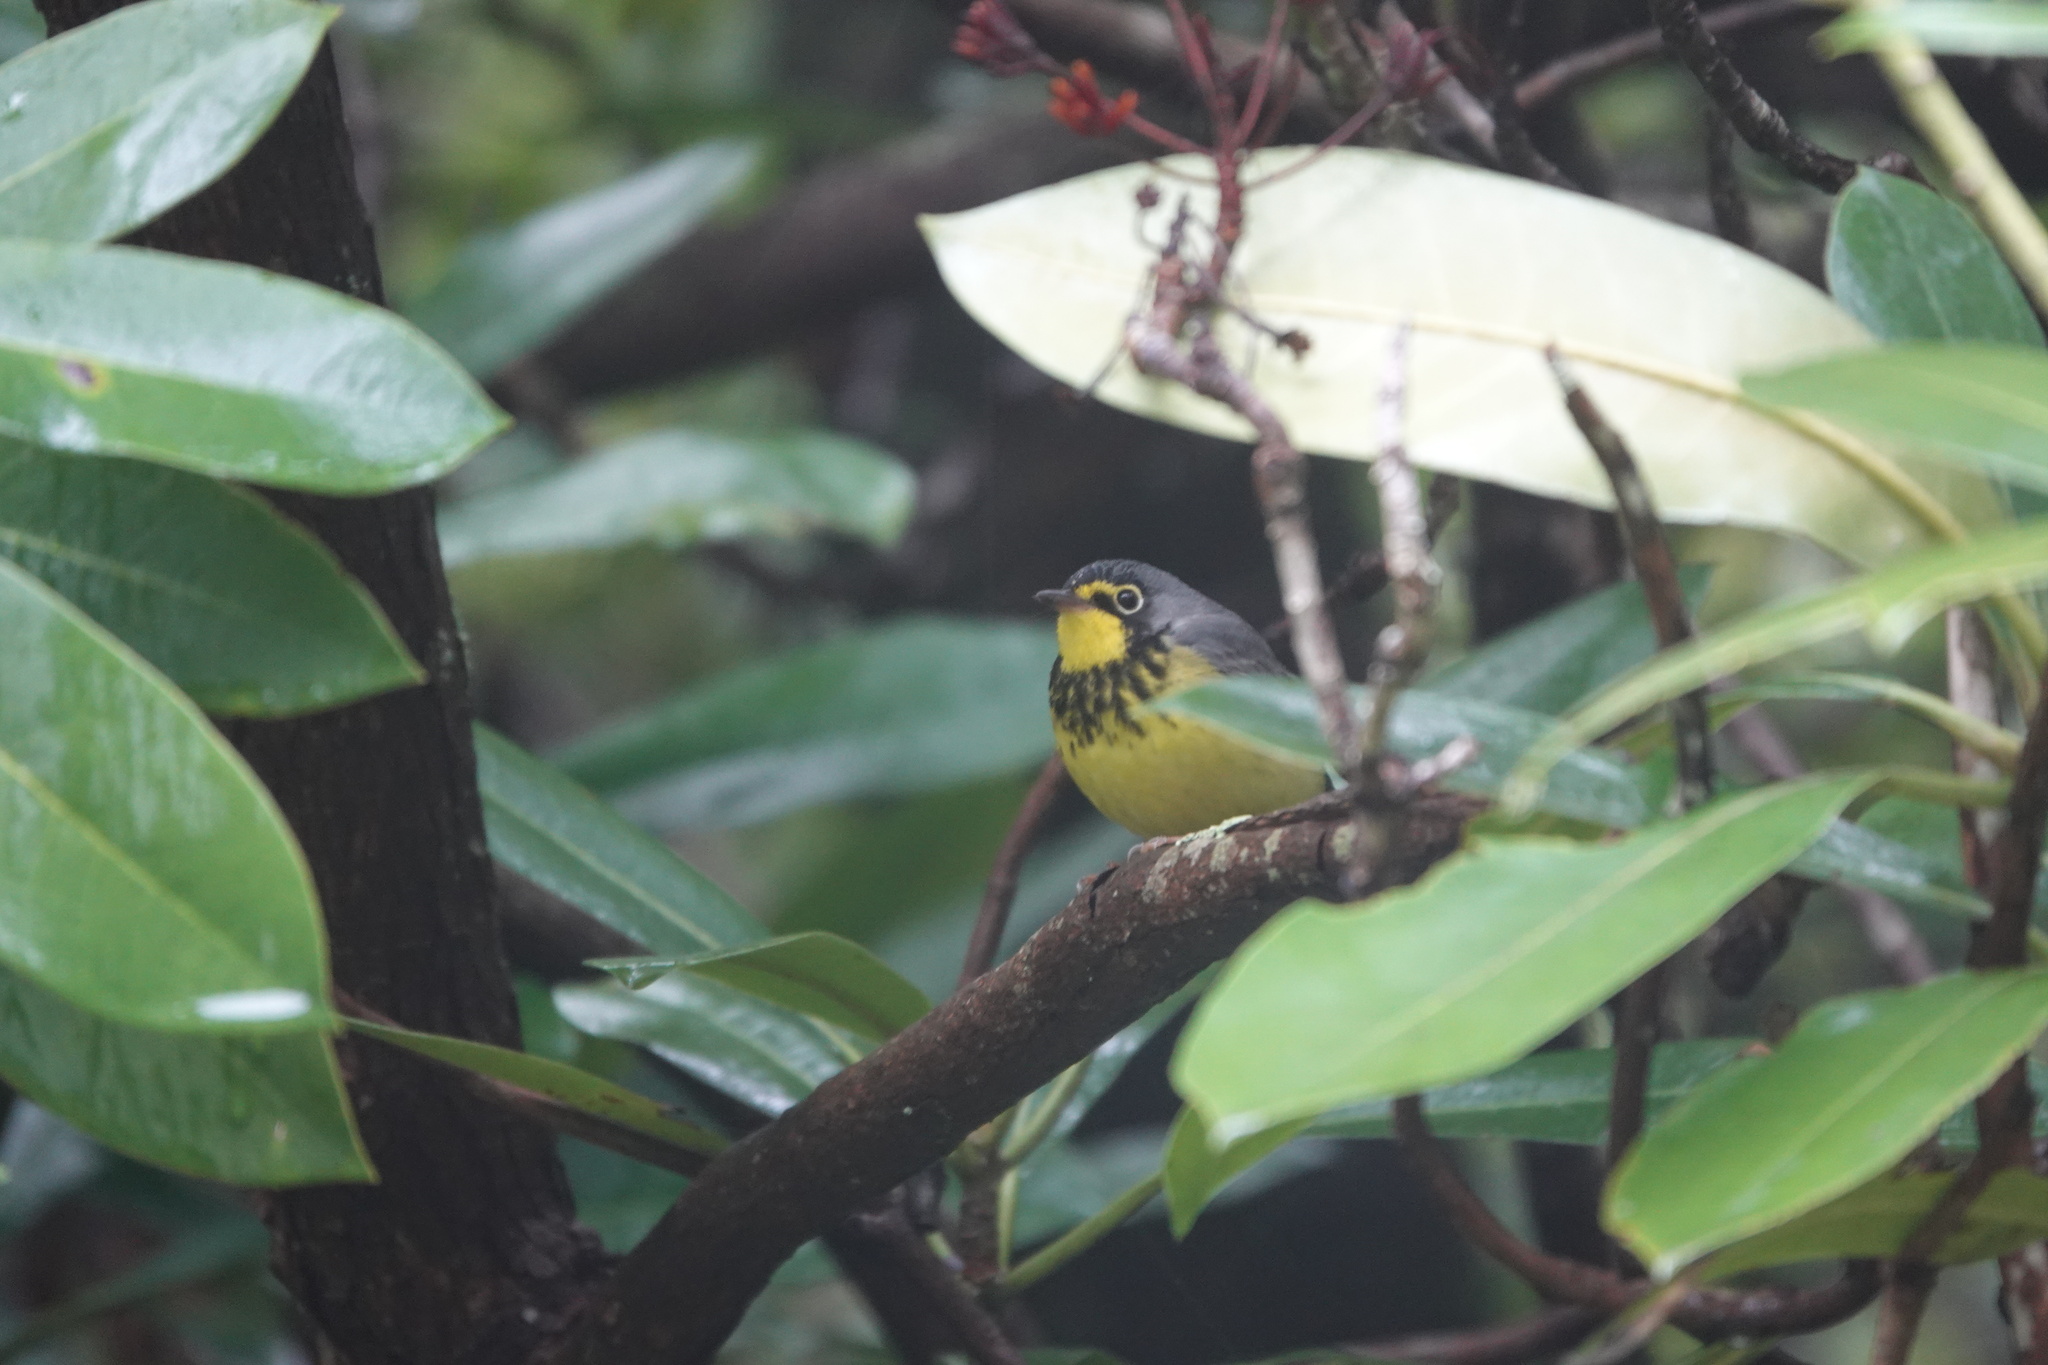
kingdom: Animalia
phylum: Chordata
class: Aves
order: Passeriformes
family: Parulidae
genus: Cardellina
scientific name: Cardellina canadensis
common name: Canada warbler
